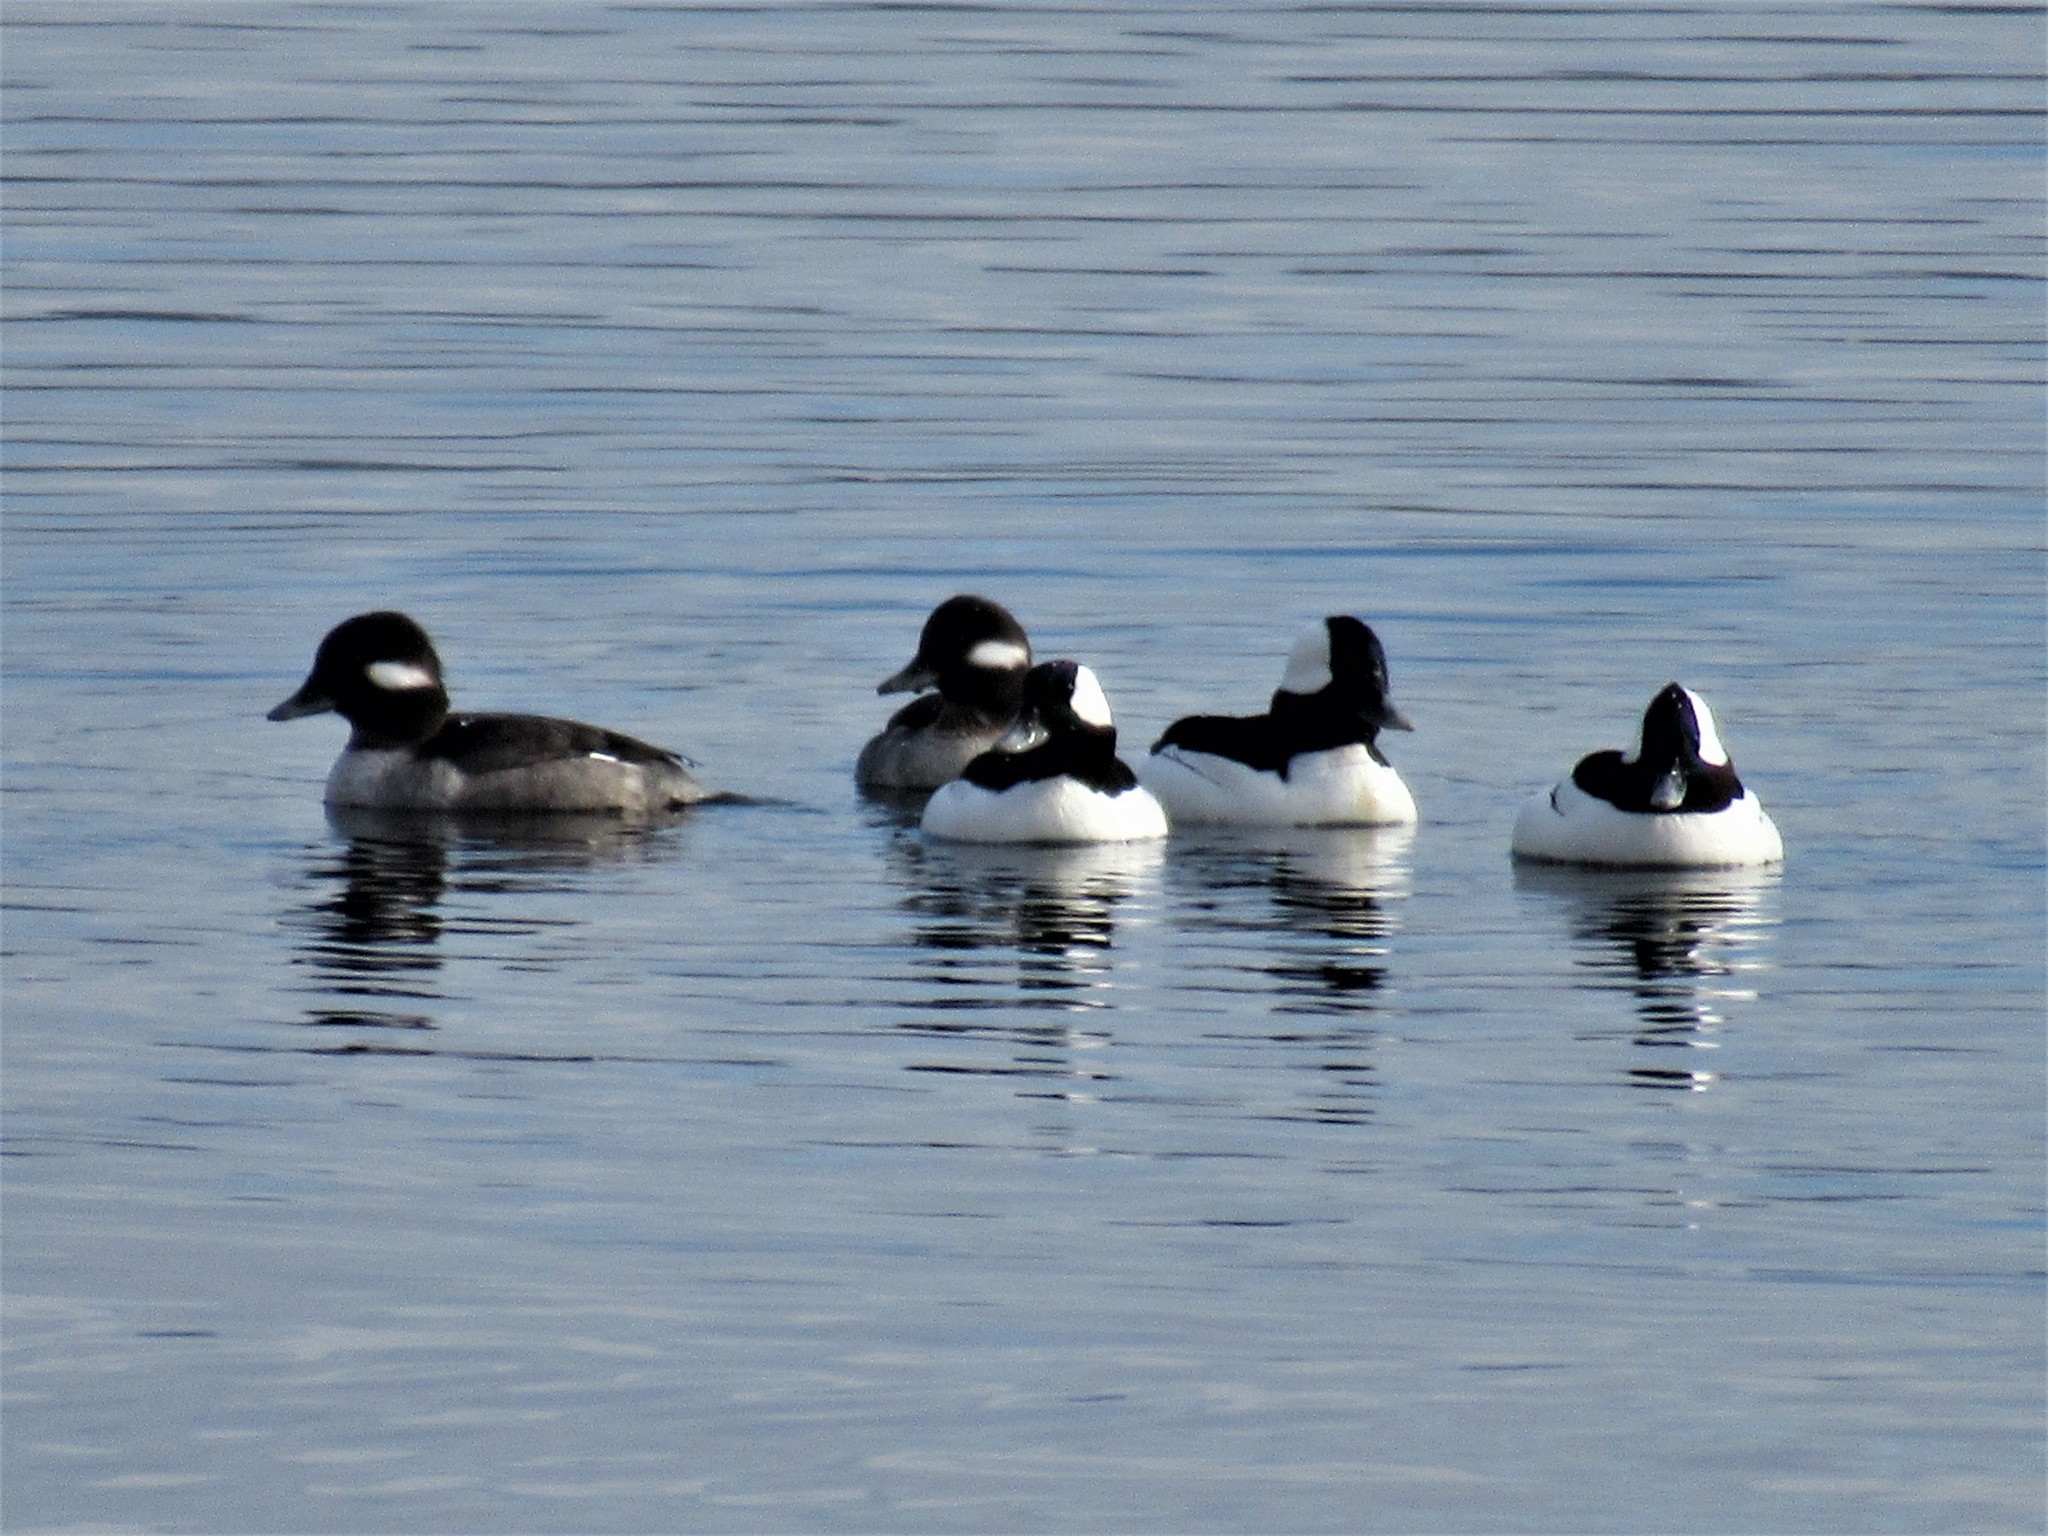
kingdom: Animalia
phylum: Chordata
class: Aves
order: Anseriformes
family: Anatidae
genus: Bucephala
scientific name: Bucephala albeola
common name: Bufflehead
